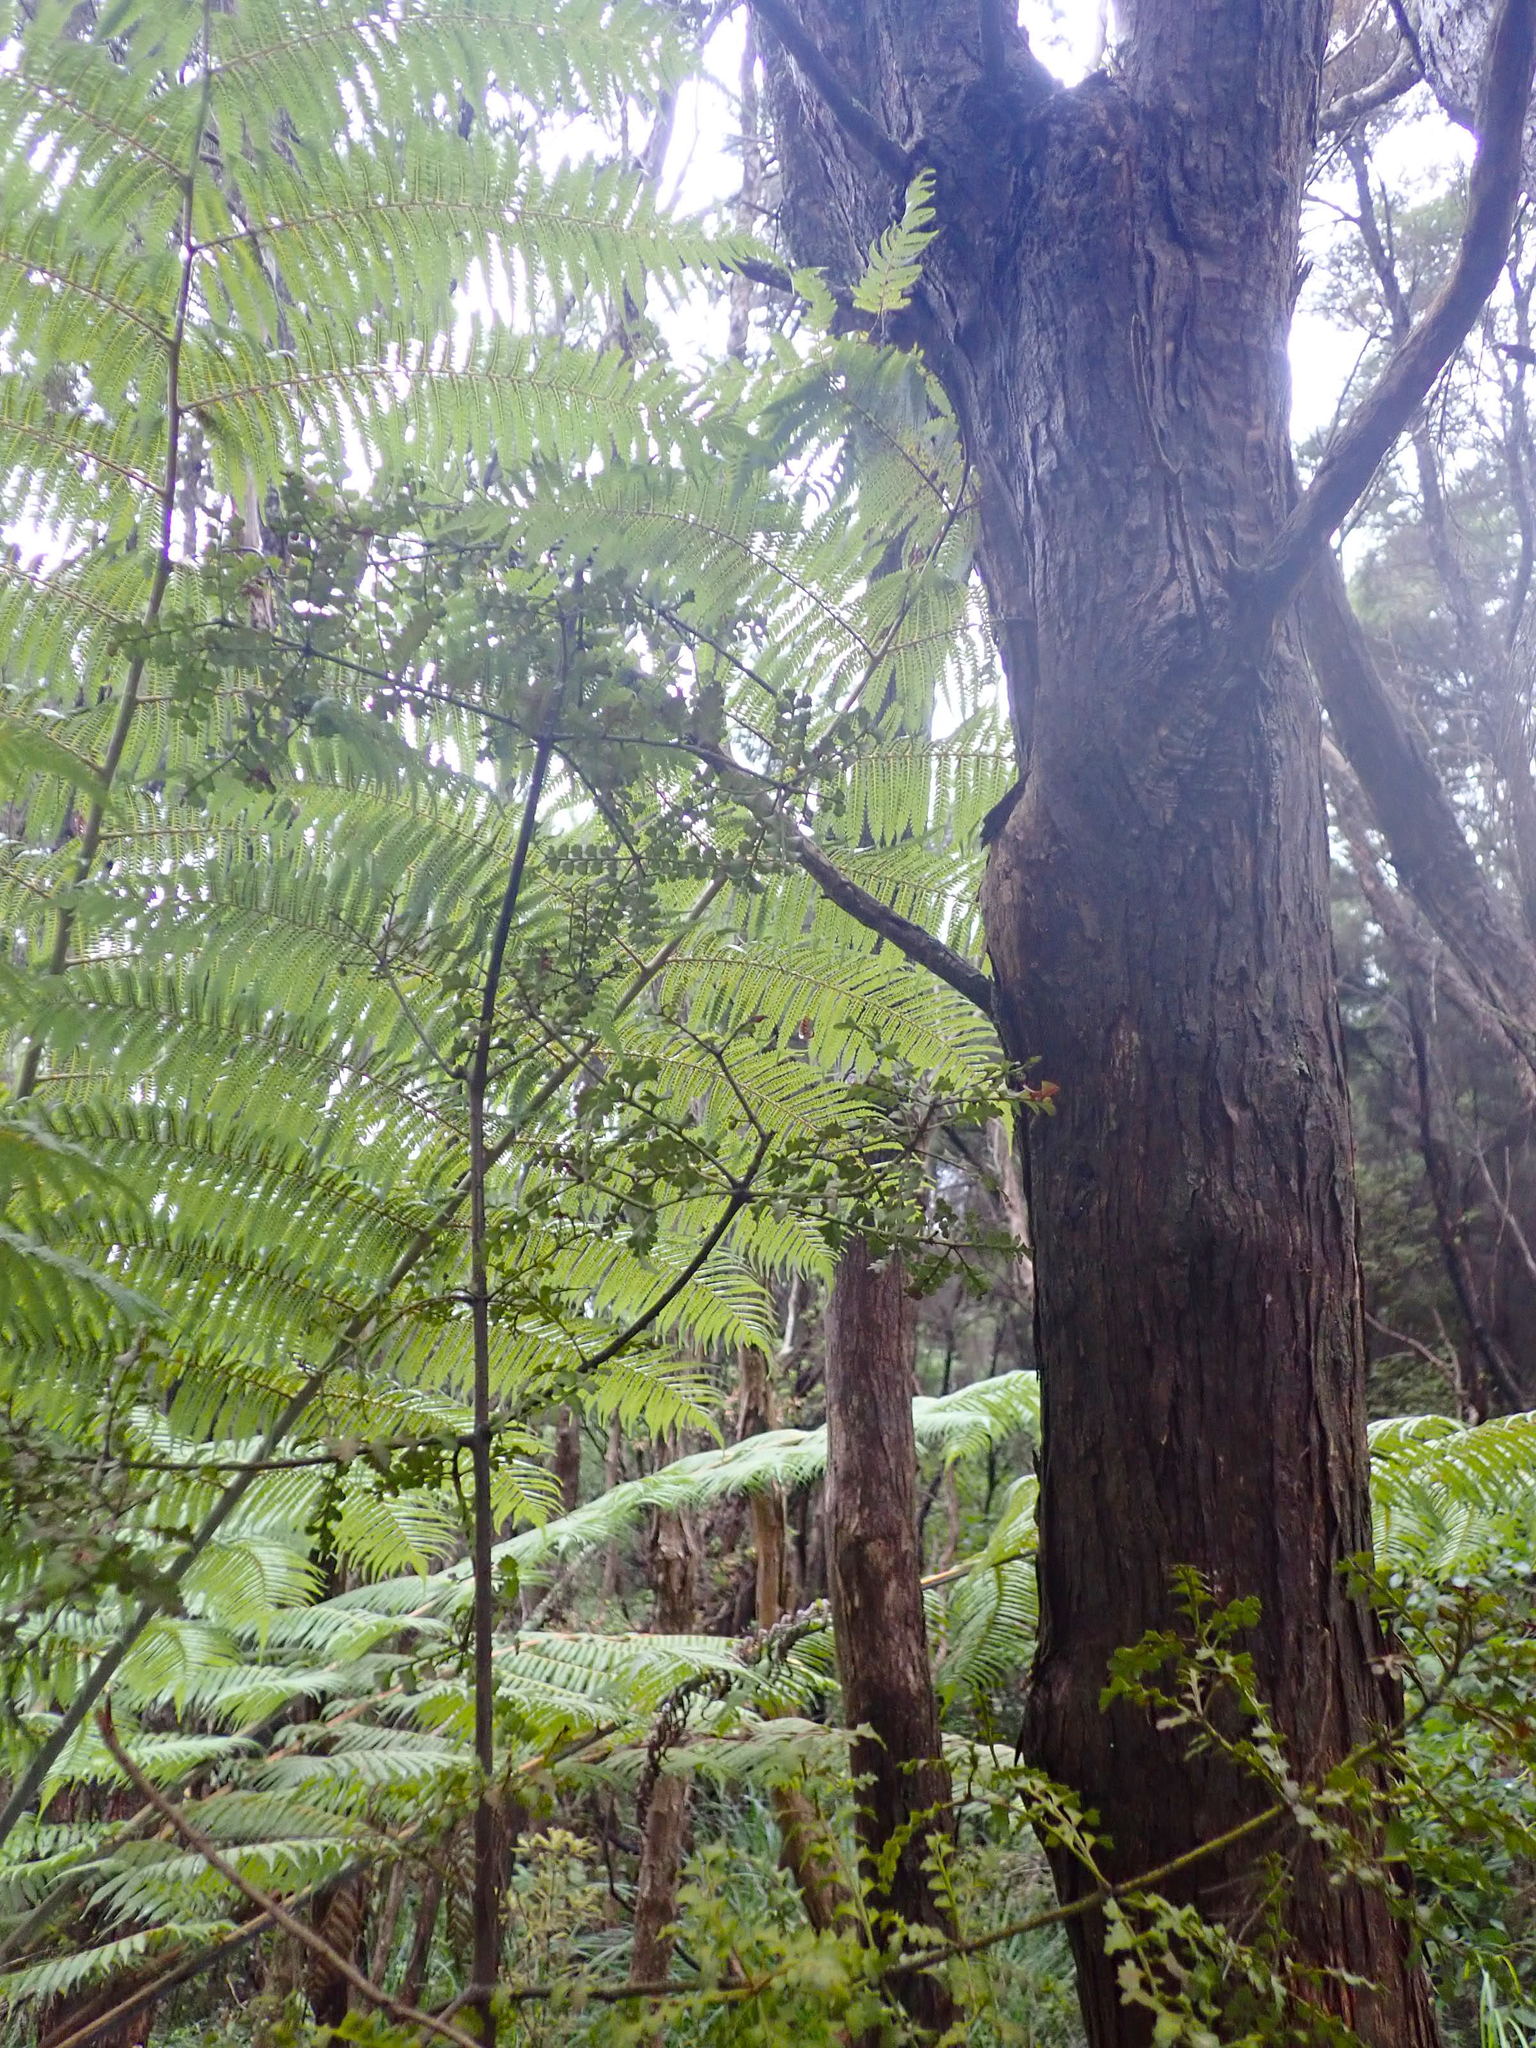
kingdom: Plantae
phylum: Tracheophyta
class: Pinopsida
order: Pinales
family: Phyllocladaceae
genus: Phyllocladus
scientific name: Phyllocladus trichomanoides
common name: Celery pine
